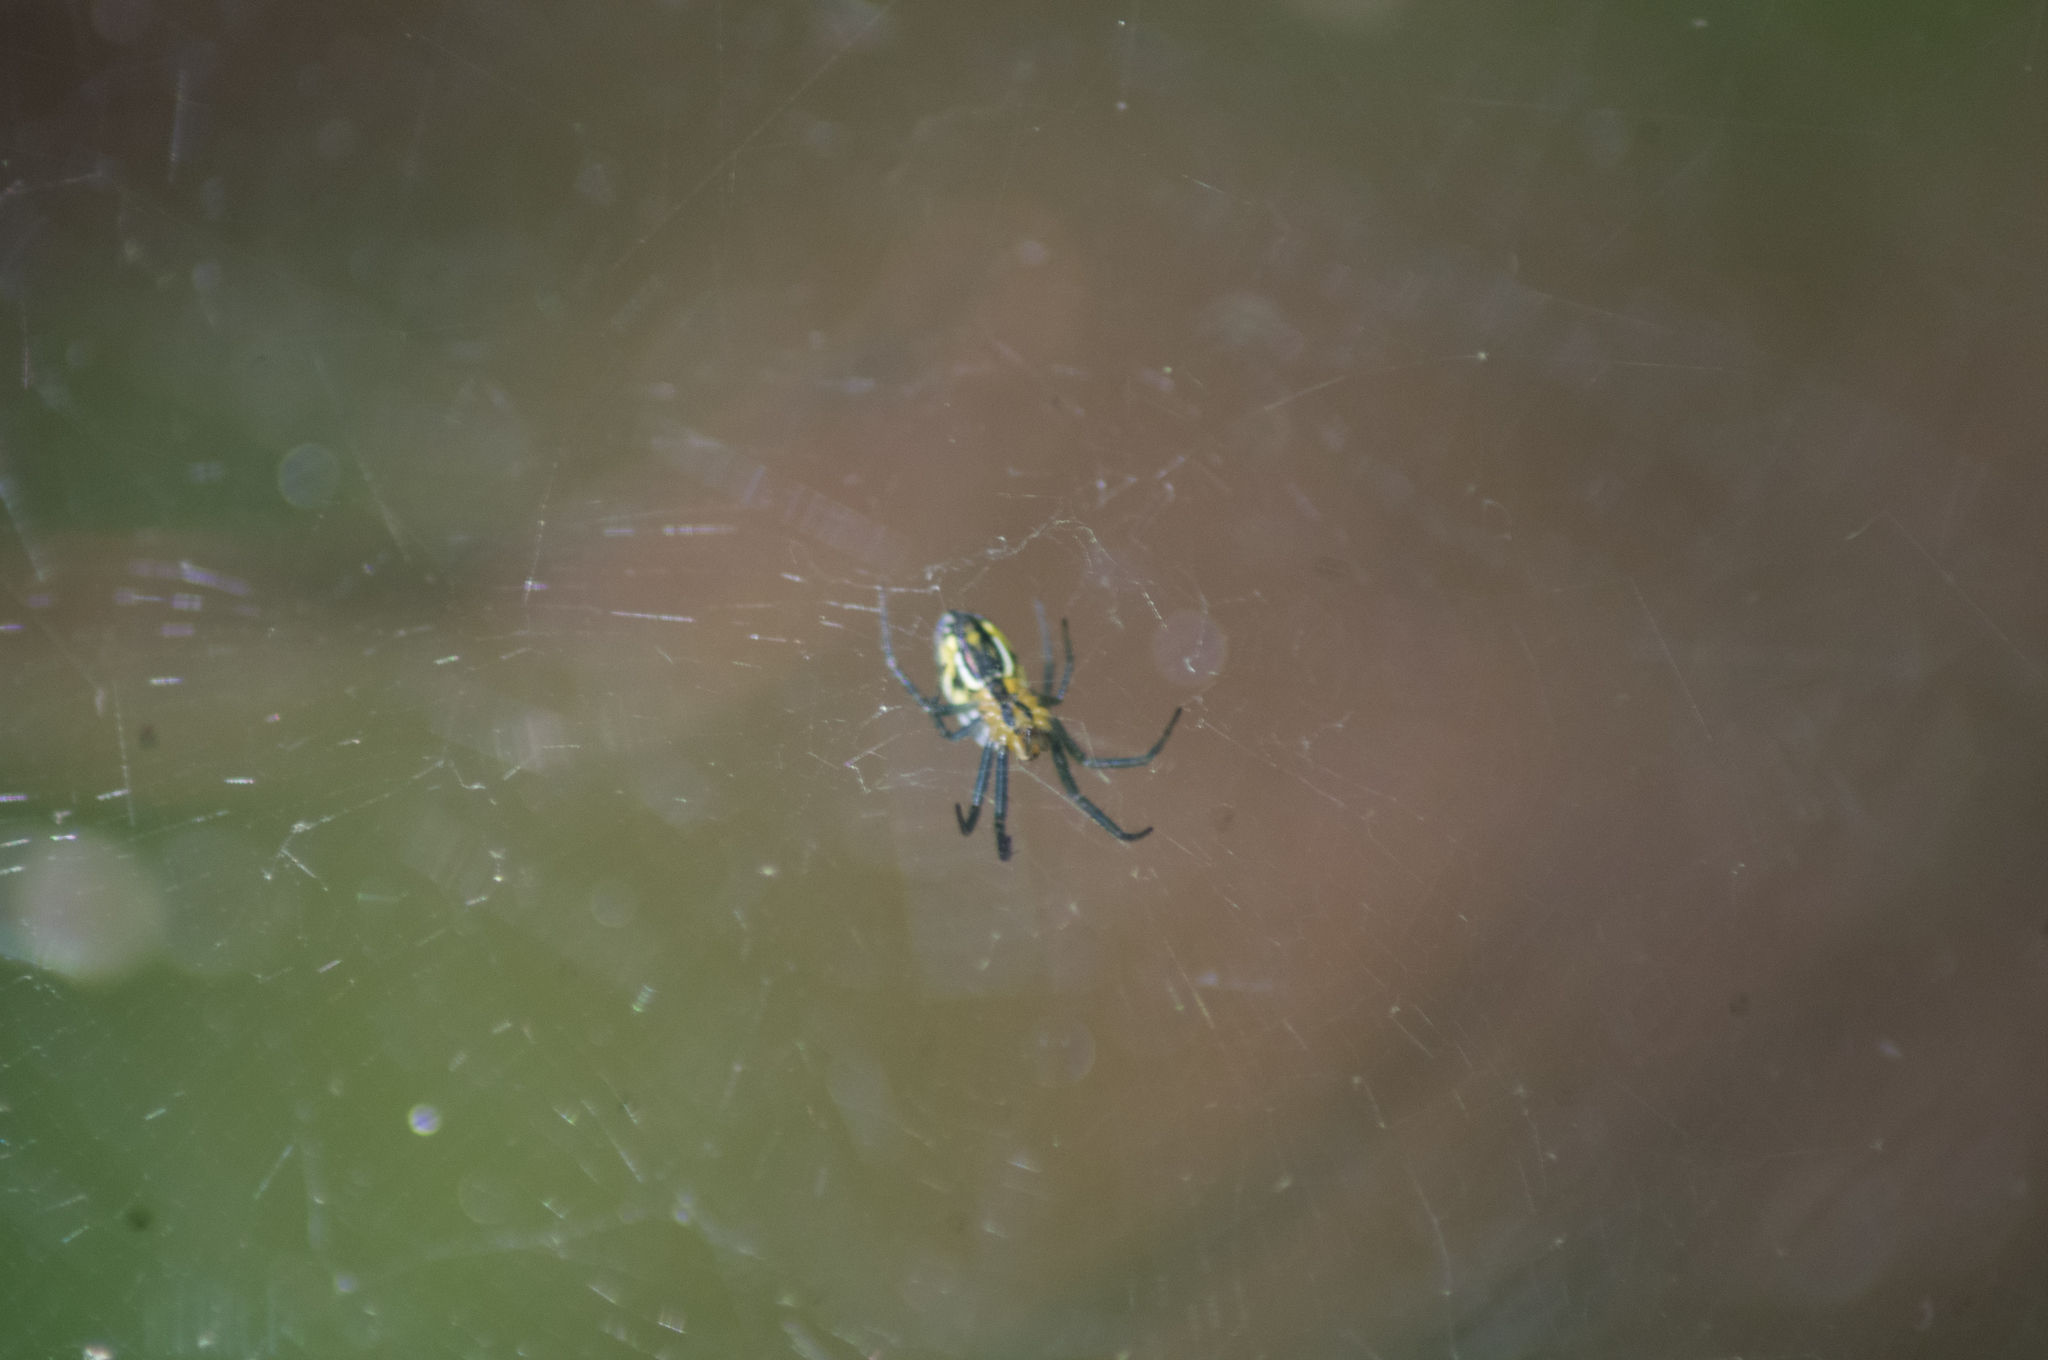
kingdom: Animalia
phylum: Arthropoda
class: Arachnida
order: Araneae
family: Araneidae
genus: Mecynogea
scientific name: Mecynogea lemniscata
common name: Orb weavers
